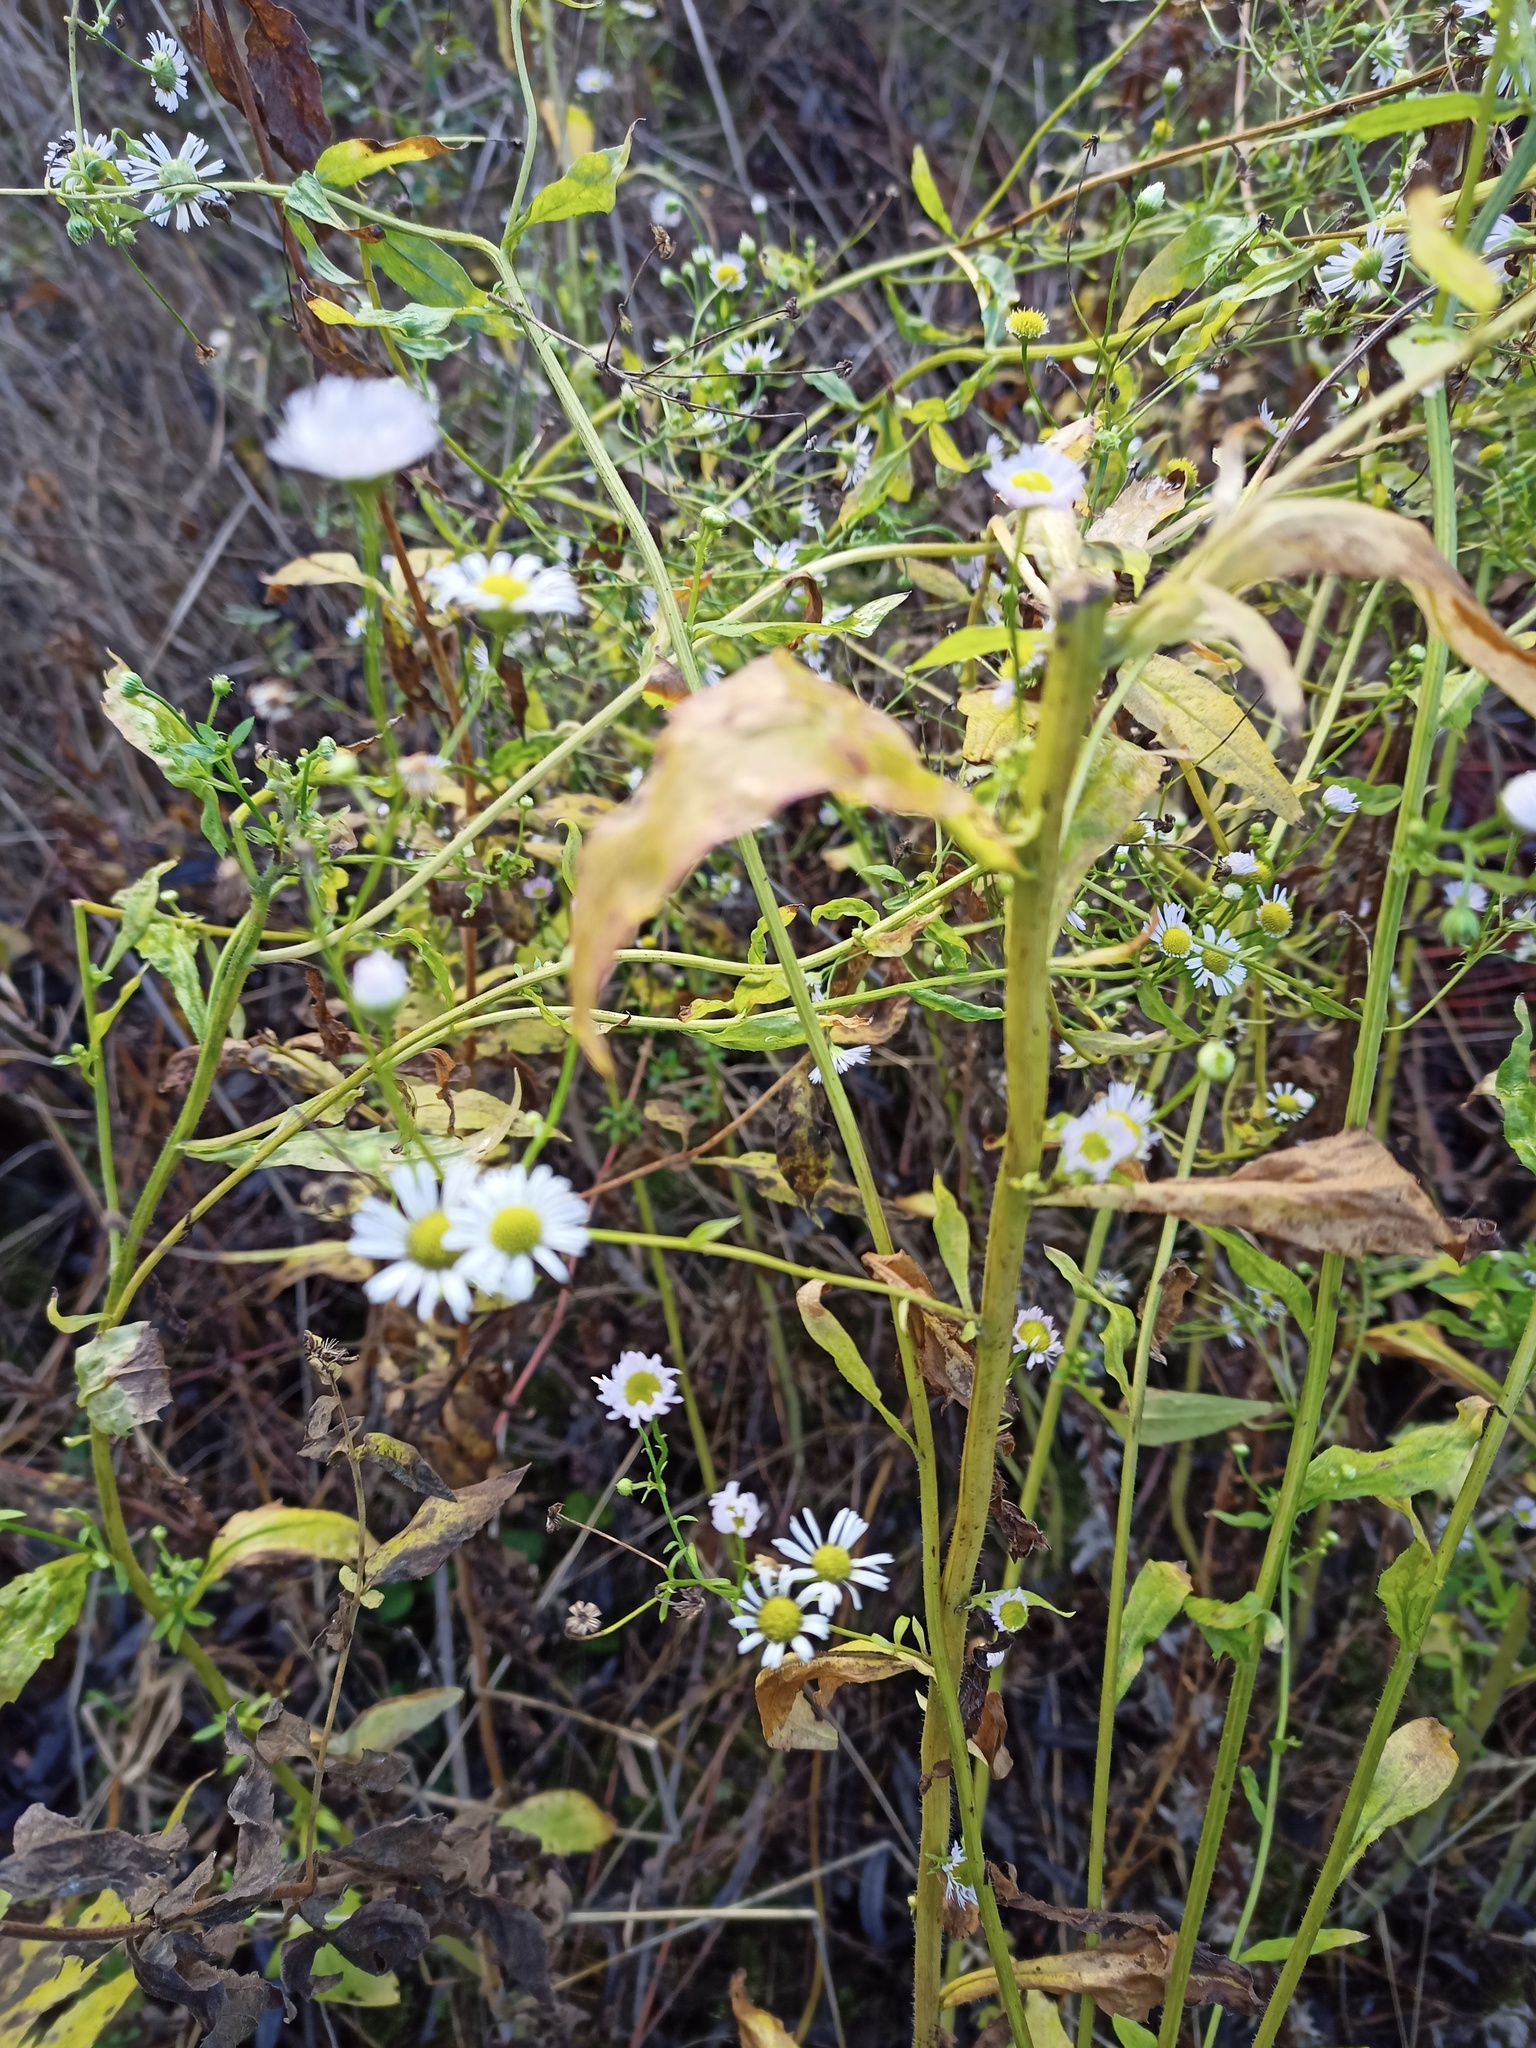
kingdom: Plantae
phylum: Tracheophyta
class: Magnoliopsida
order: Asterales
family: Asteraceae
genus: Erigeron
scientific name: Erigeron annuus
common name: Tall fleabane
